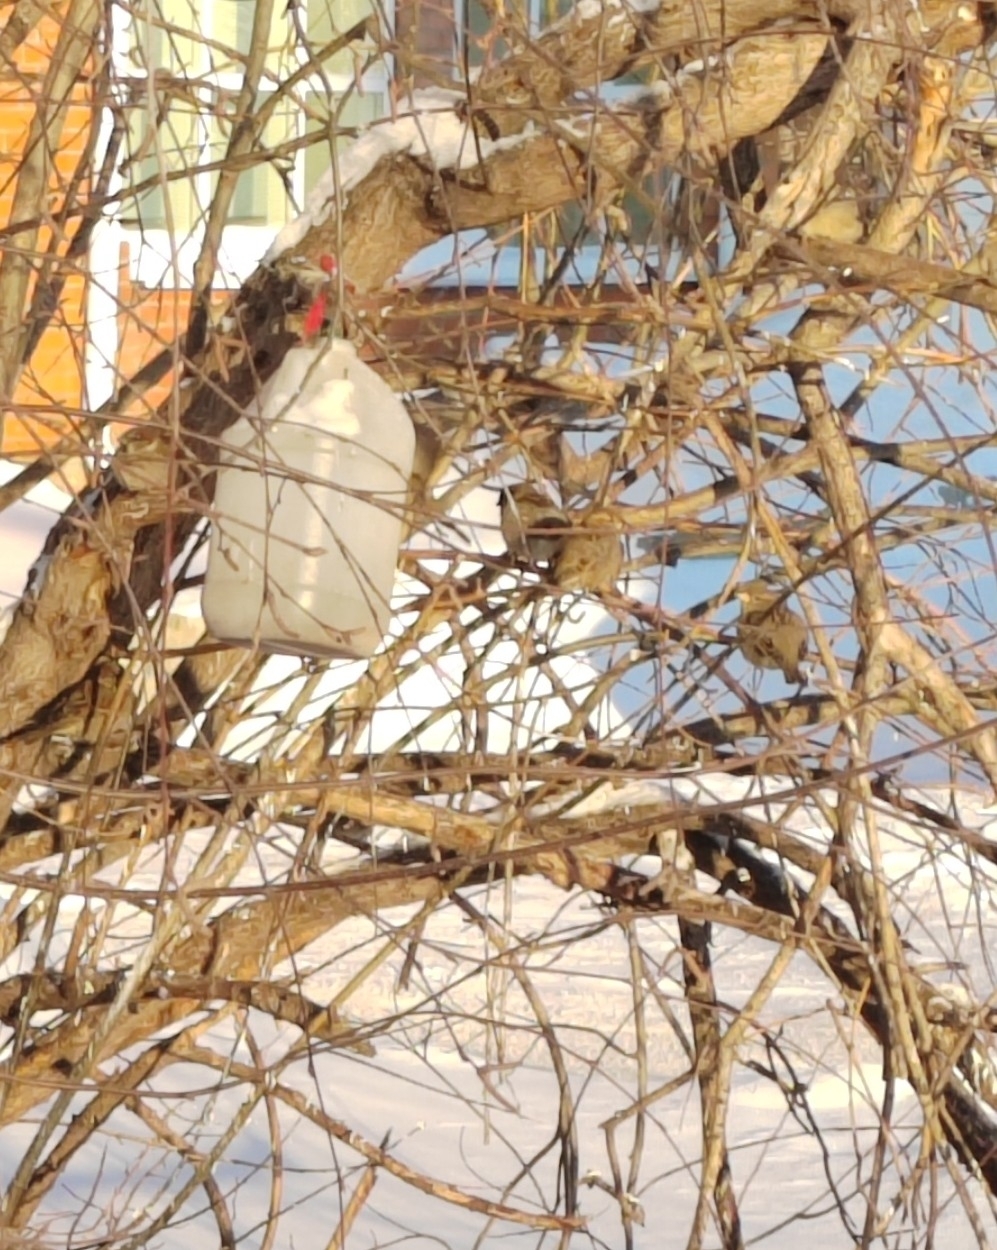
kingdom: Animalia
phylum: Chordata
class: Aves
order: Passeriformes
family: Passeridae
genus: Passer
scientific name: Passer domesticus
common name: House sparrow
